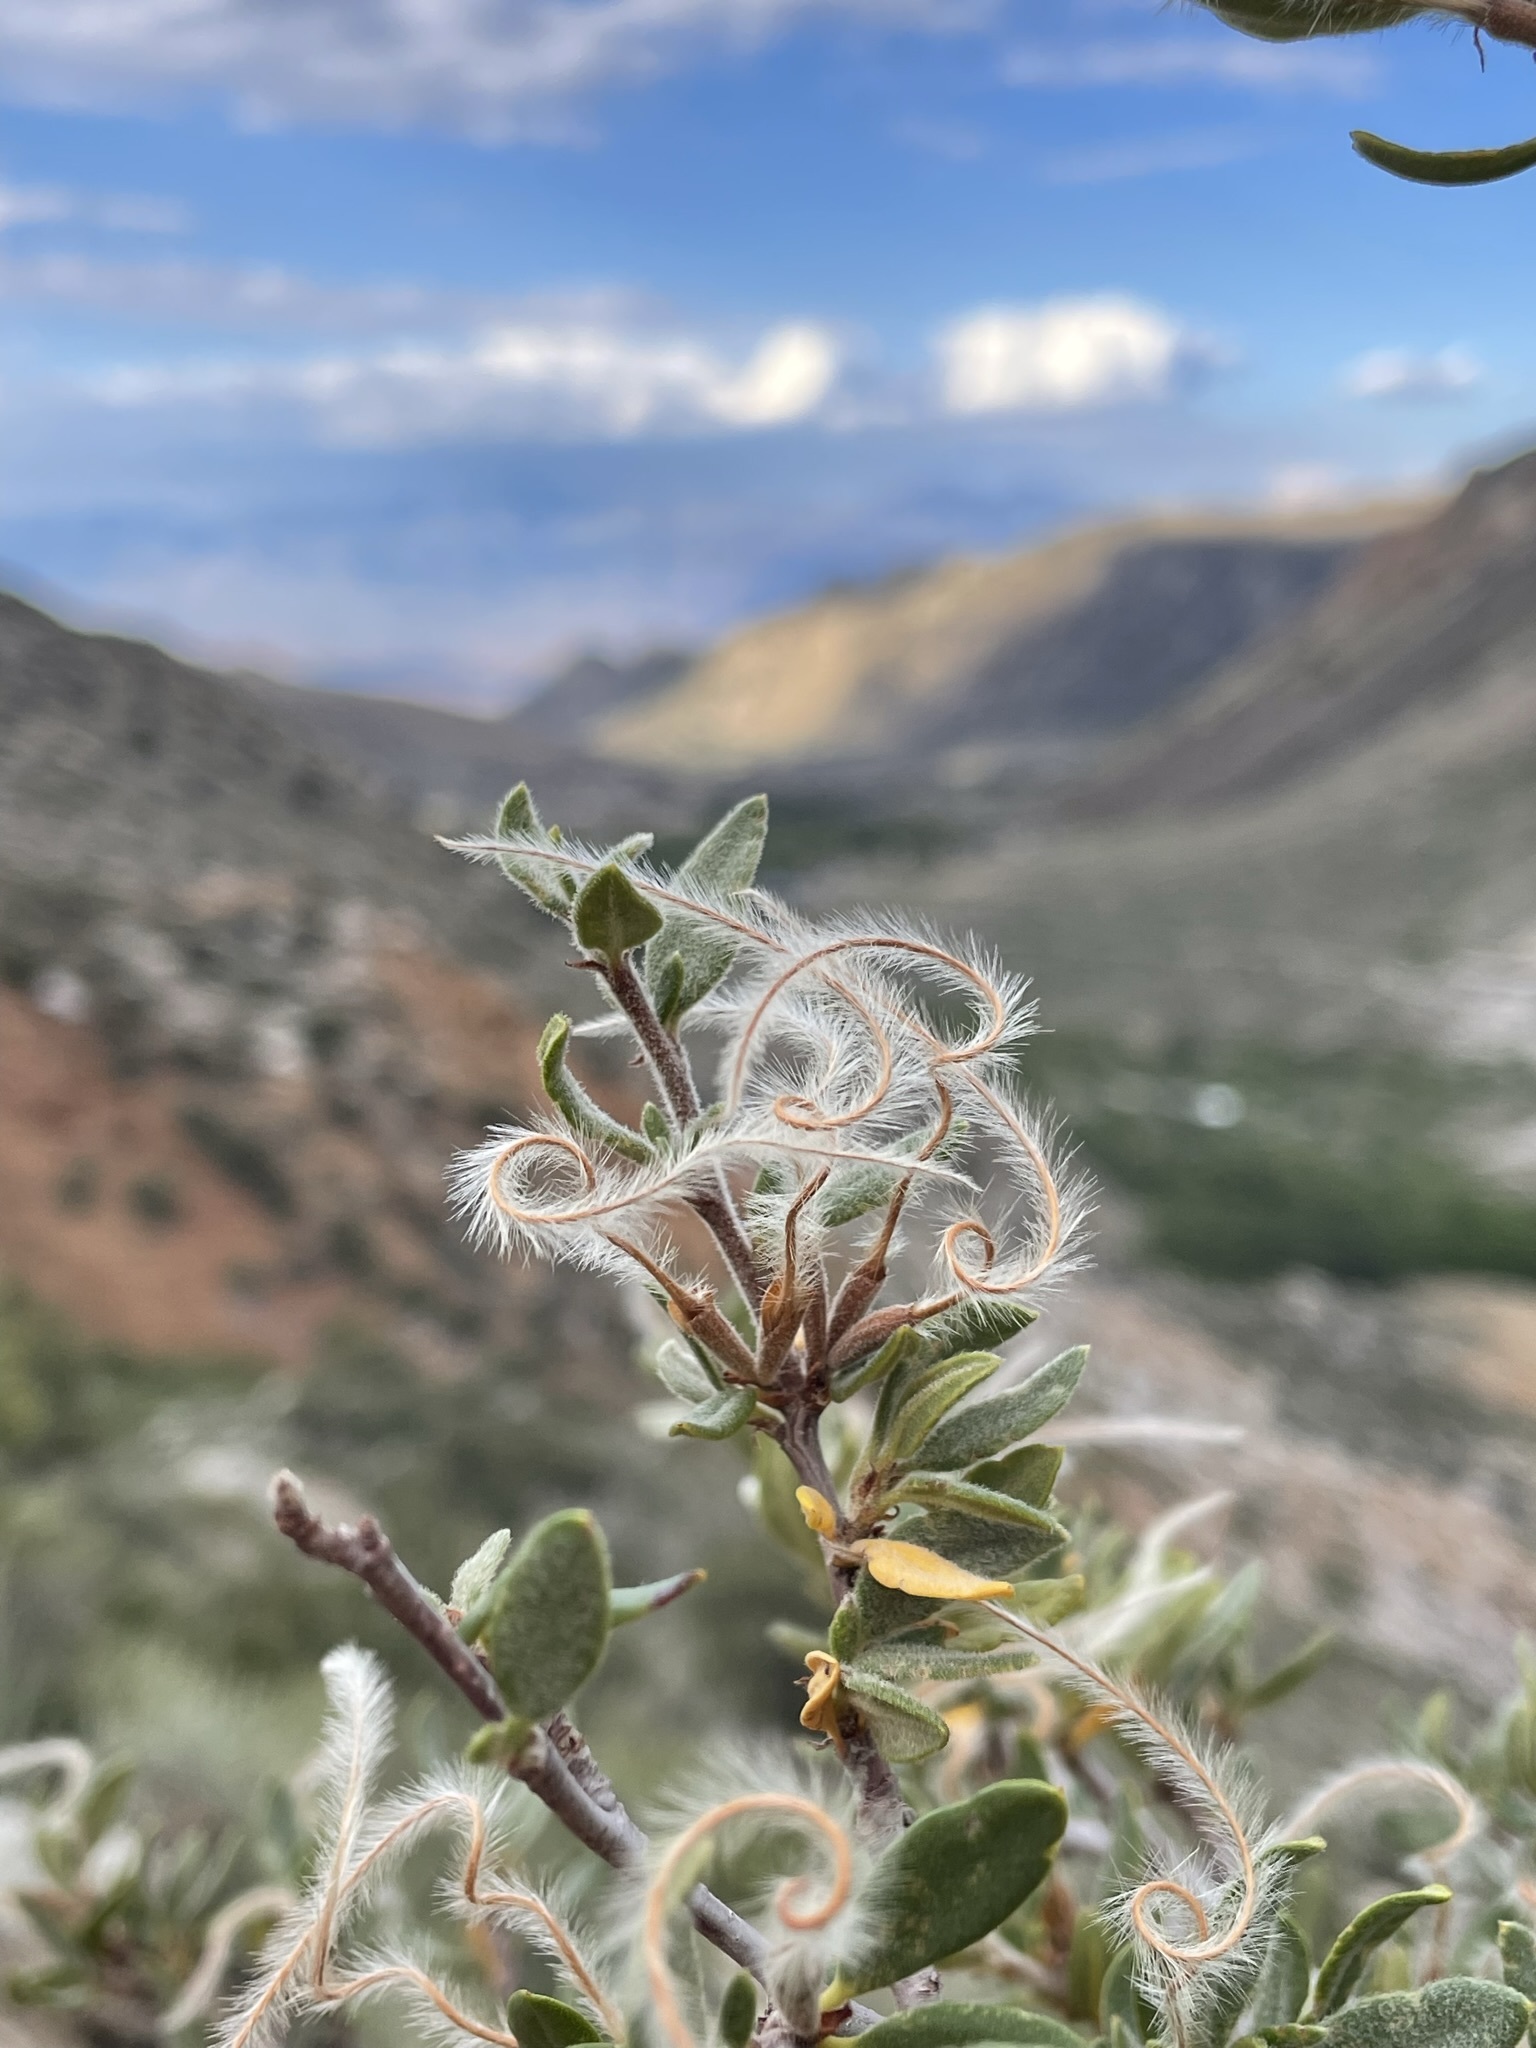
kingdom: Plantae
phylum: Tracheophyta
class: Magnoliopsida
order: Rosales
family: Rosaceae
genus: Cercocarpus
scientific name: Cercocarpus ledifolius
